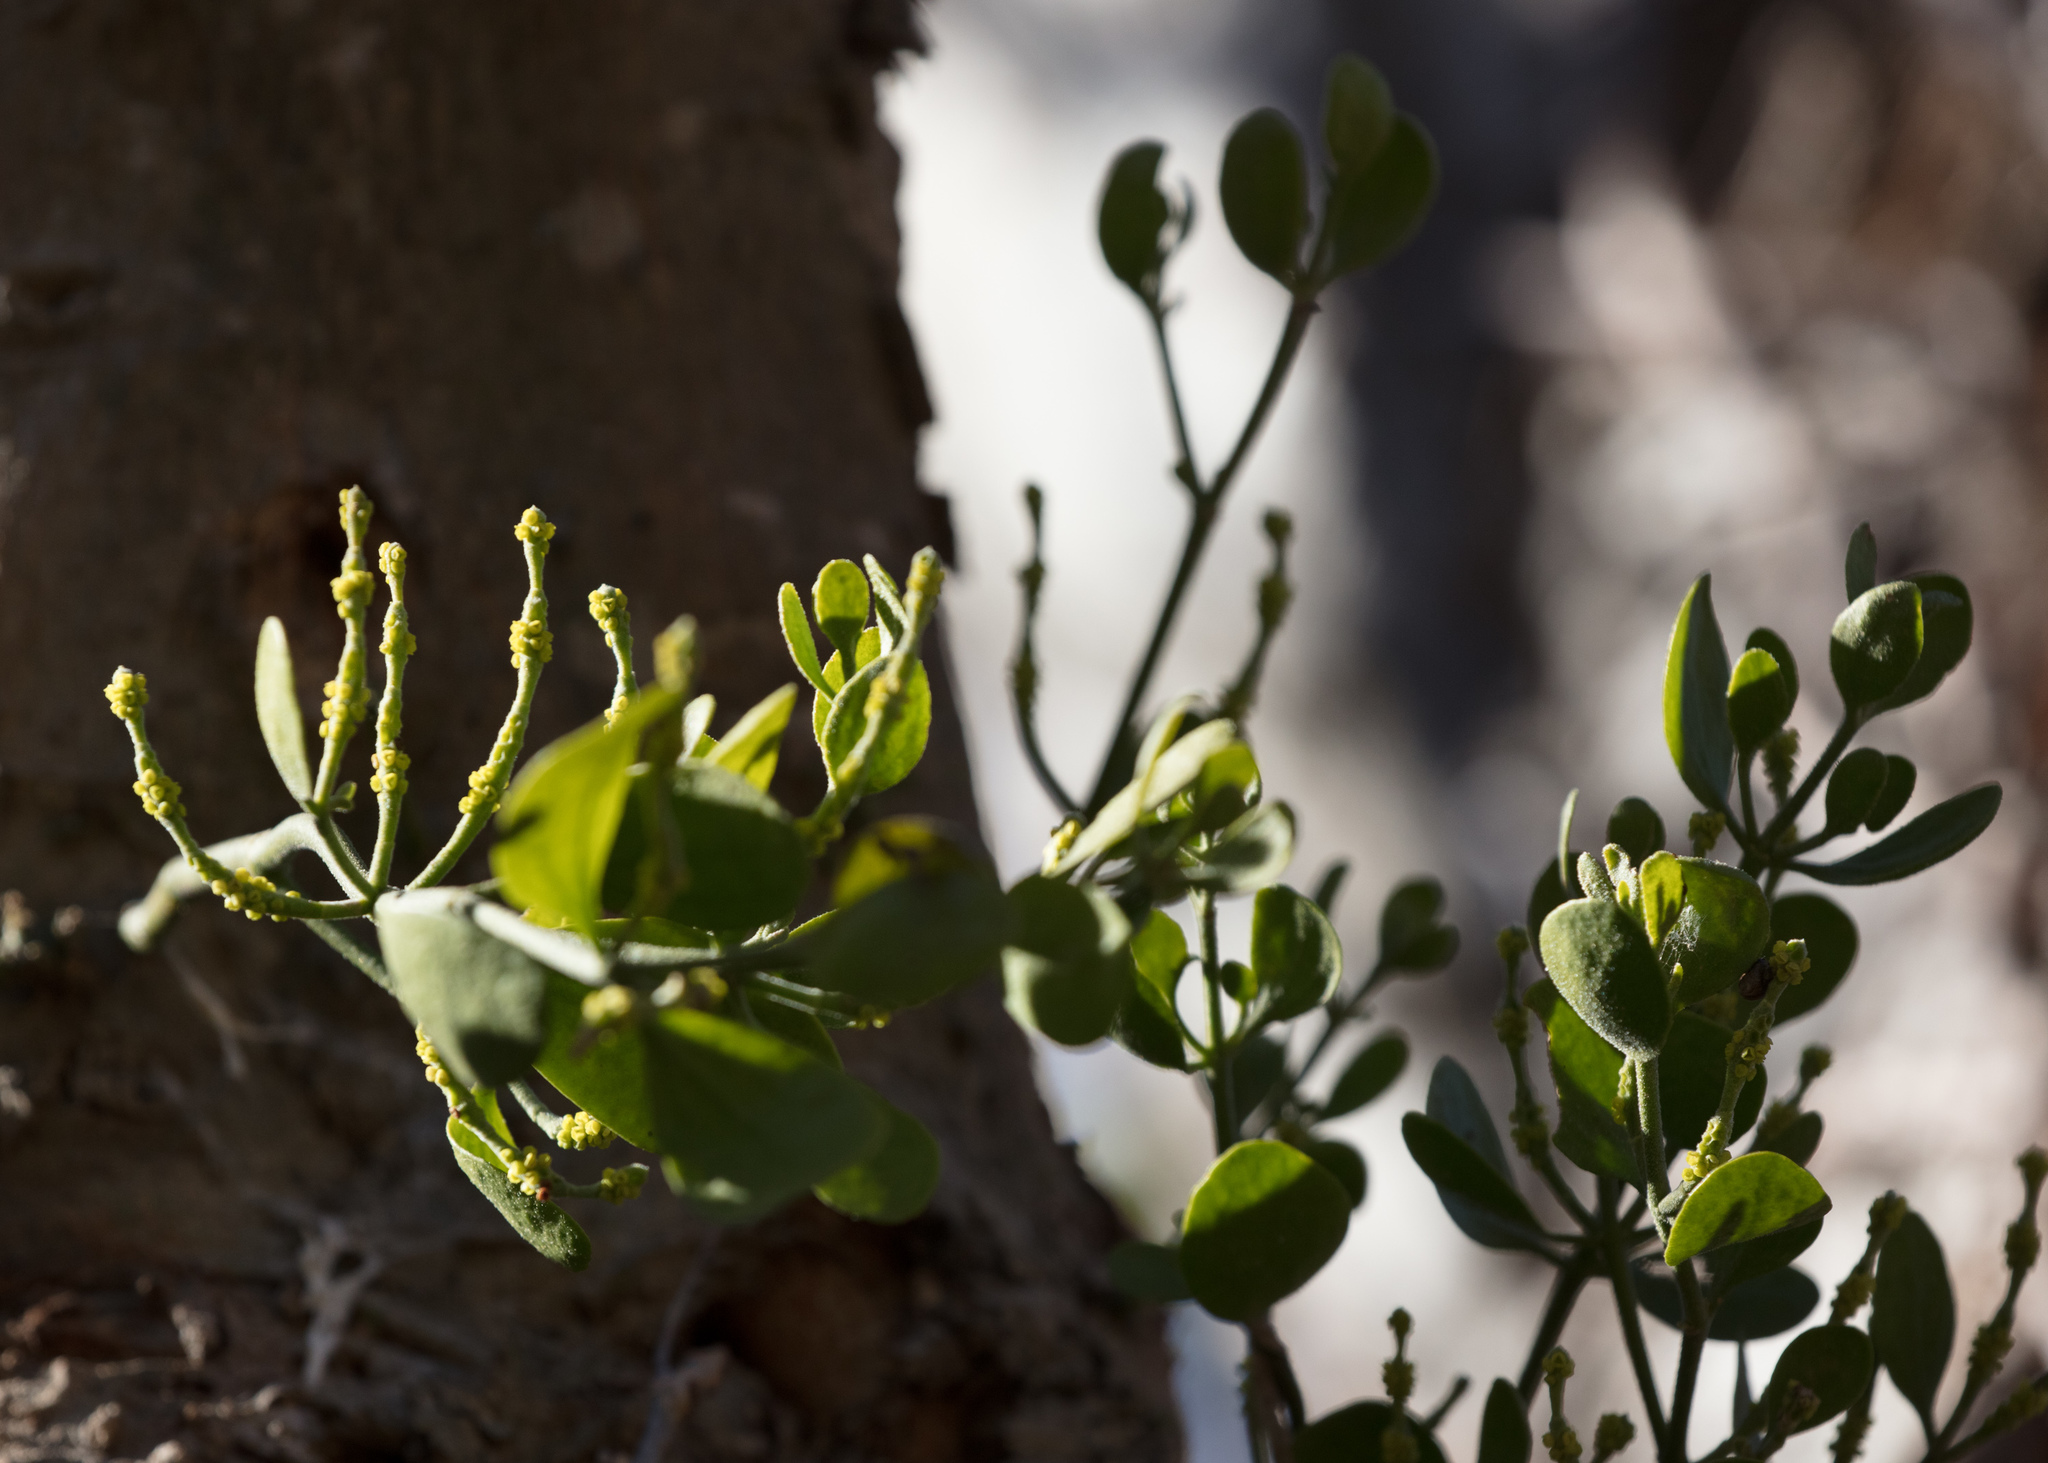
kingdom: Plantae
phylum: Tracheophyta
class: Magnoliopsida
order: Santalales
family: Viscaceae
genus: Phoradendron
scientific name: Phoradendron leucarpum
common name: Pacific mistletoe
